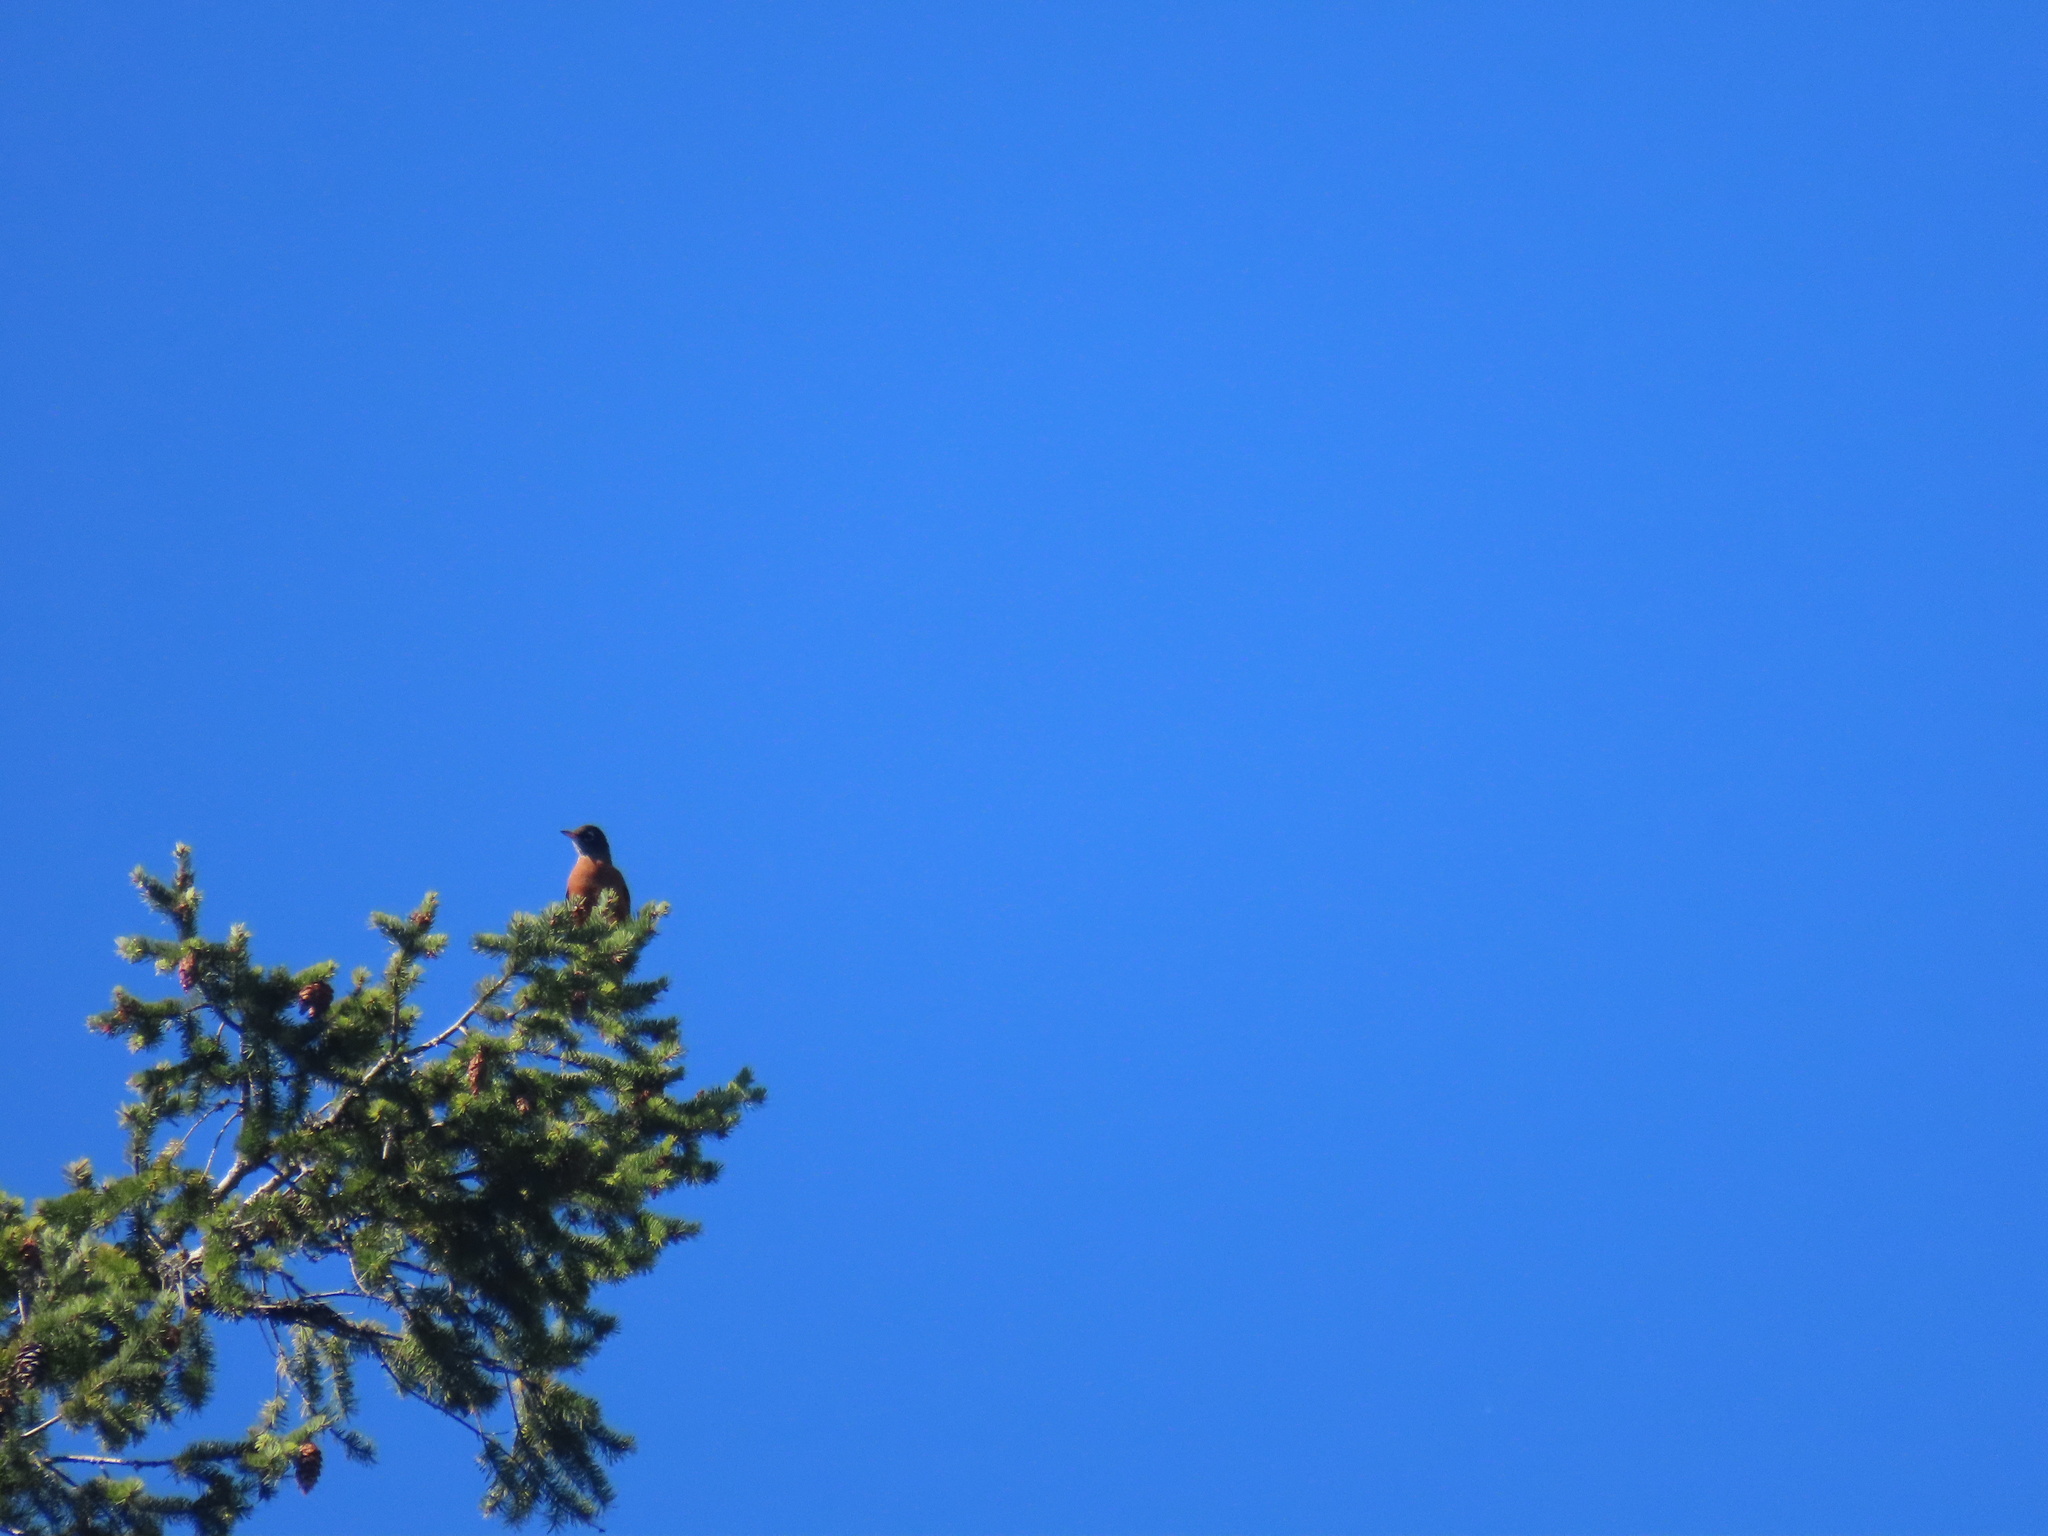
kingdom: Animalia
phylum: Chordata
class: Aves
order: Passeriformes
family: Turdidae
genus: Turdus
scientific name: Turdus migratorius
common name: American robin
